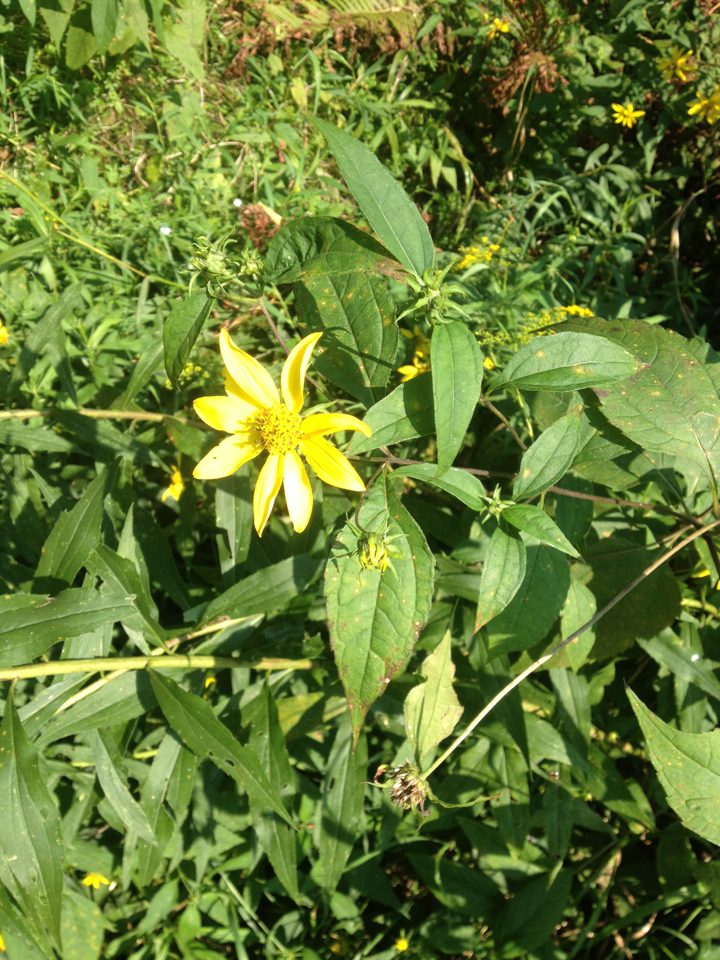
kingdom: Plantae
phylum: Tracheophyta
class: Magnoliopsida
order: Asterales
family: Asteraceae
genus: Helianthus
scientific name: Helianthus decapetalus
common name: Thin-leaved sunflower
